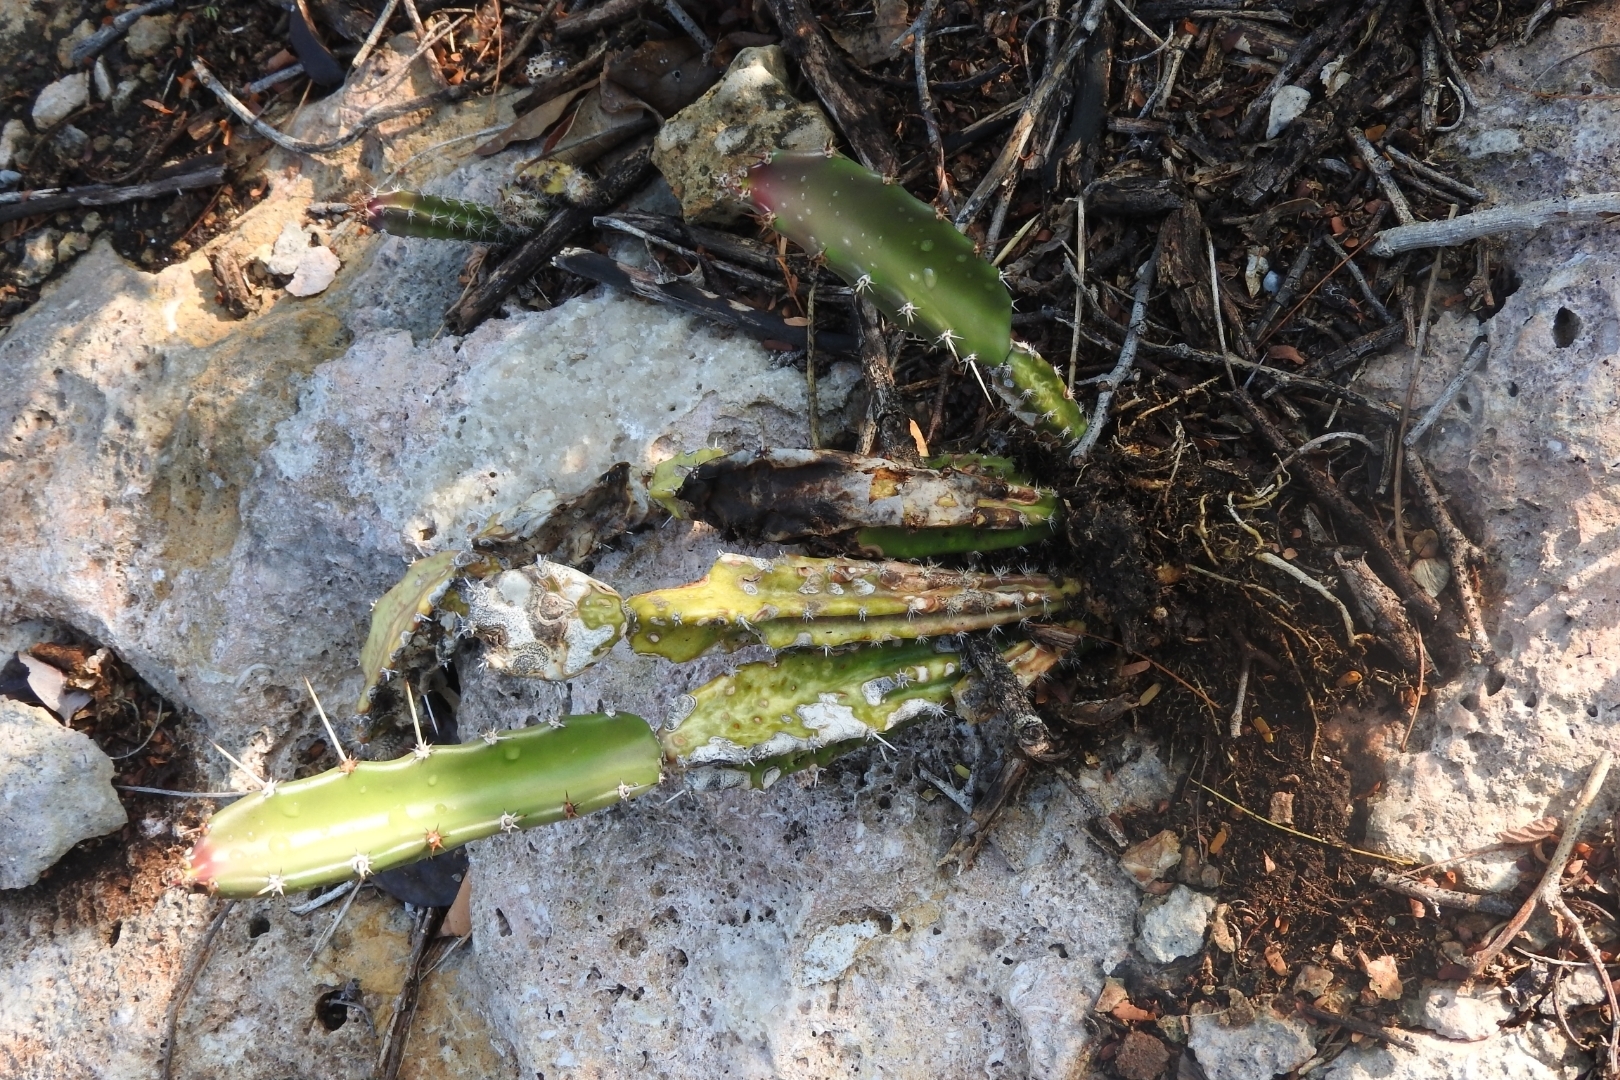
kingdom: Plantae
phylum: Tracheophyta
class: Magnoliopsida
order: Caryophyllales
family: Cactaceae
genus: Acanthocereus
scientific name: Acanthocereus tetragonus
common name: Triangle cactus
